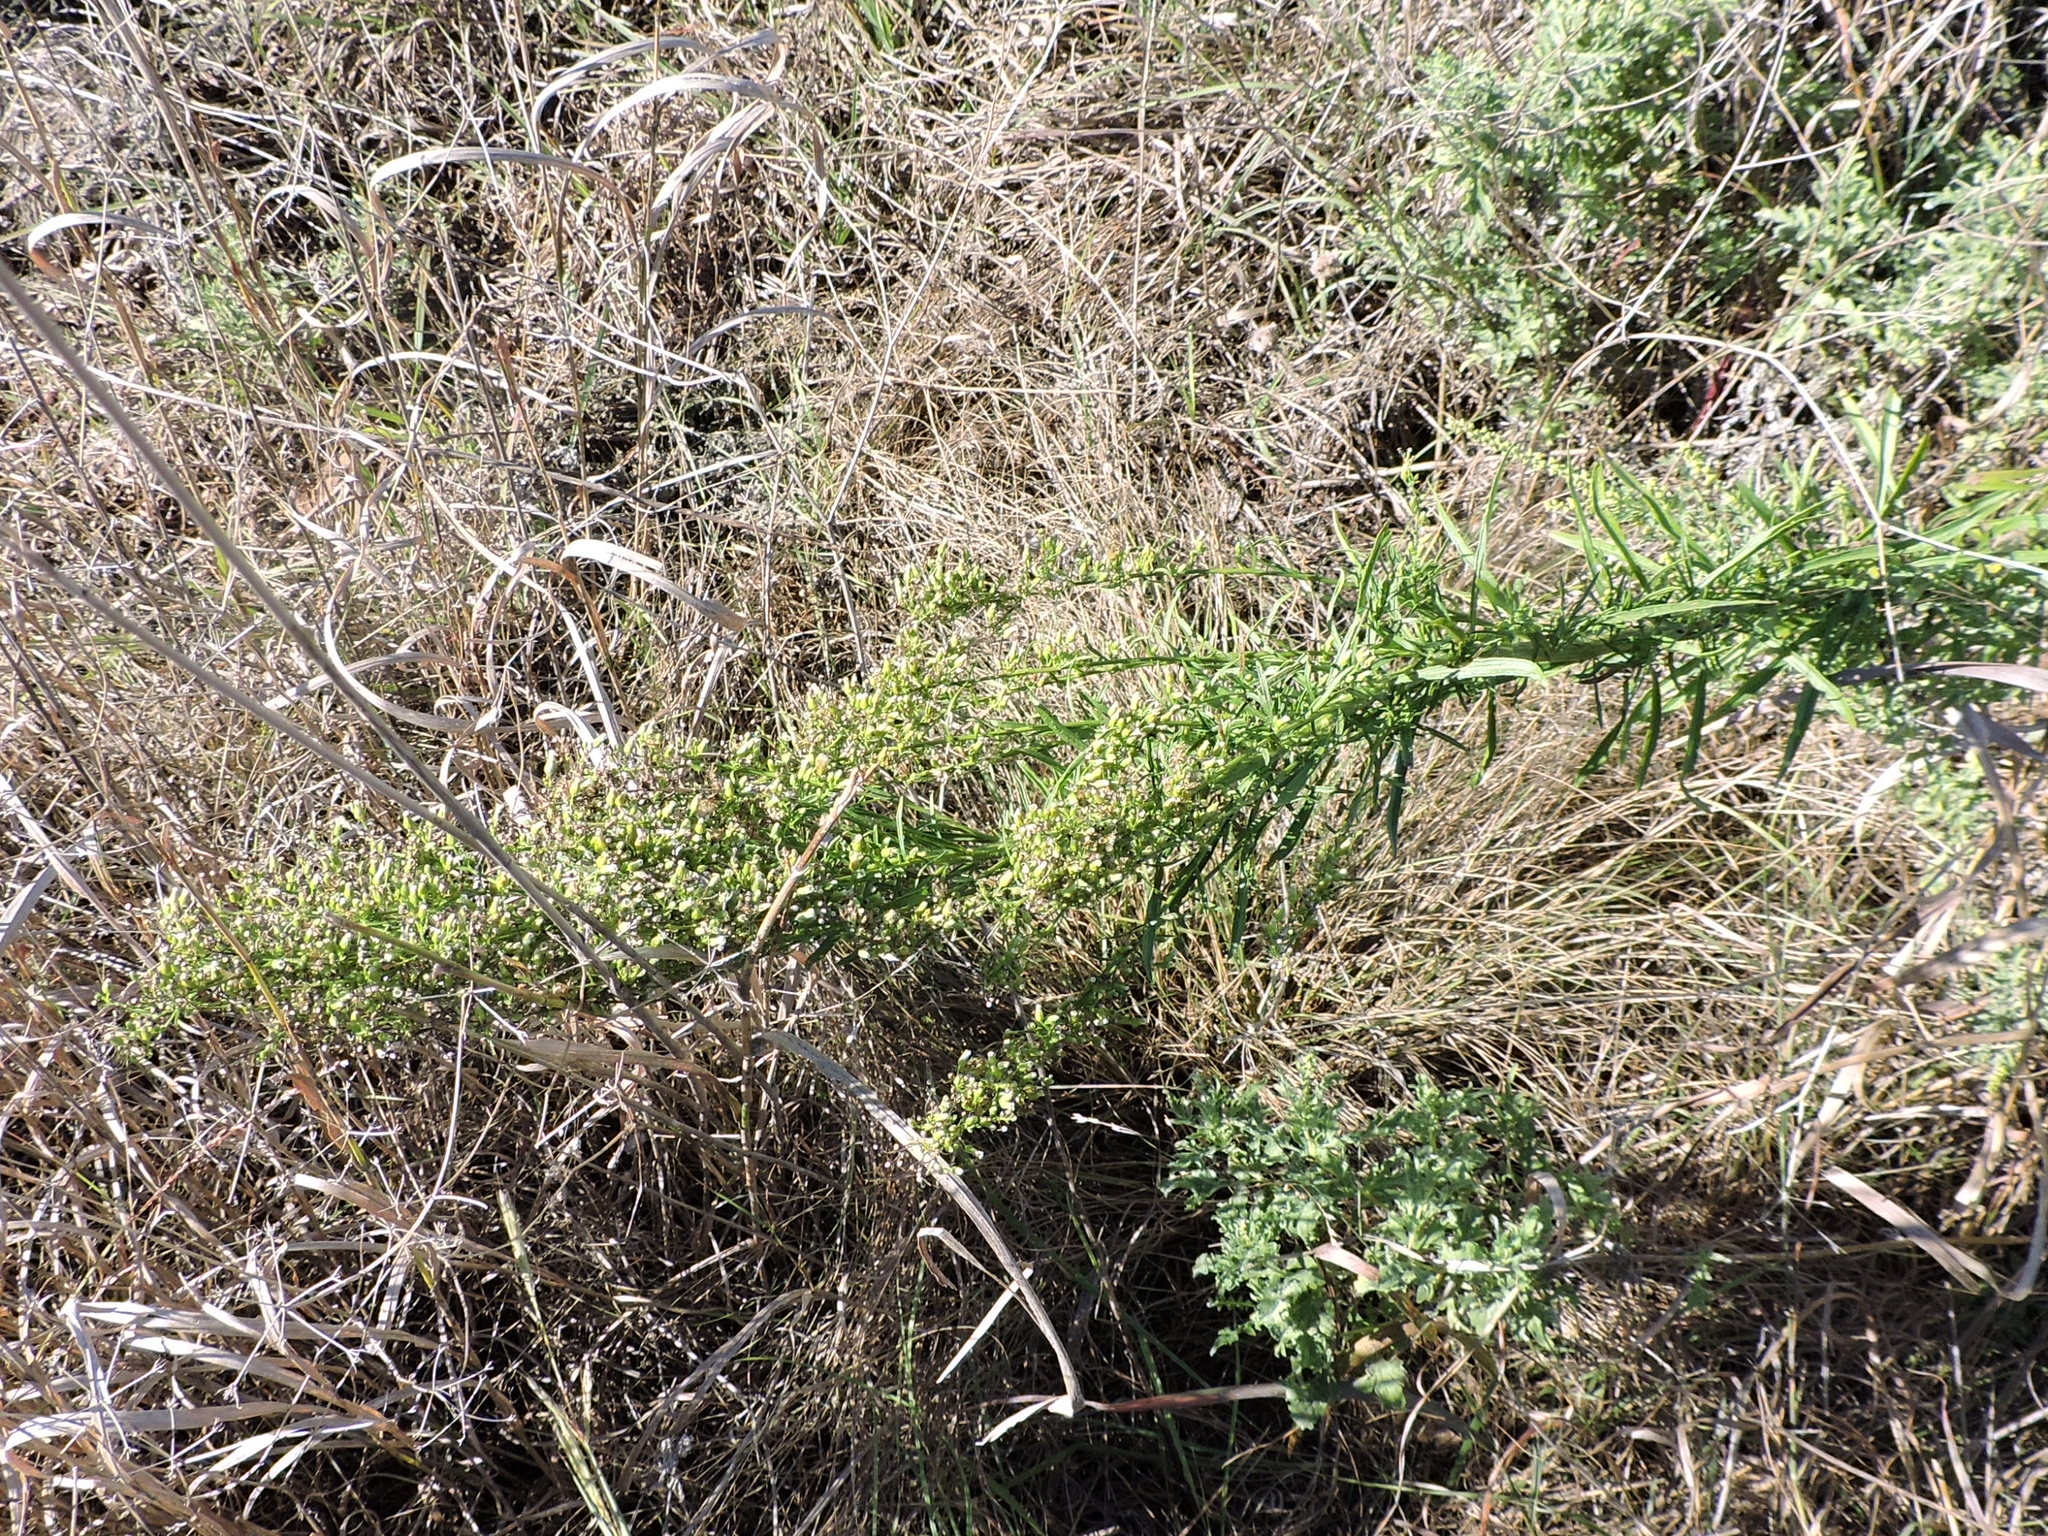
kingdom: Plantae
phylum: Tracheophyta
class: Magnoliopsida
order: Asterales
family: Asteraceae
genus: Erigeron
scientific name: Erigeron canadensis
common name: Canadian fleabane
